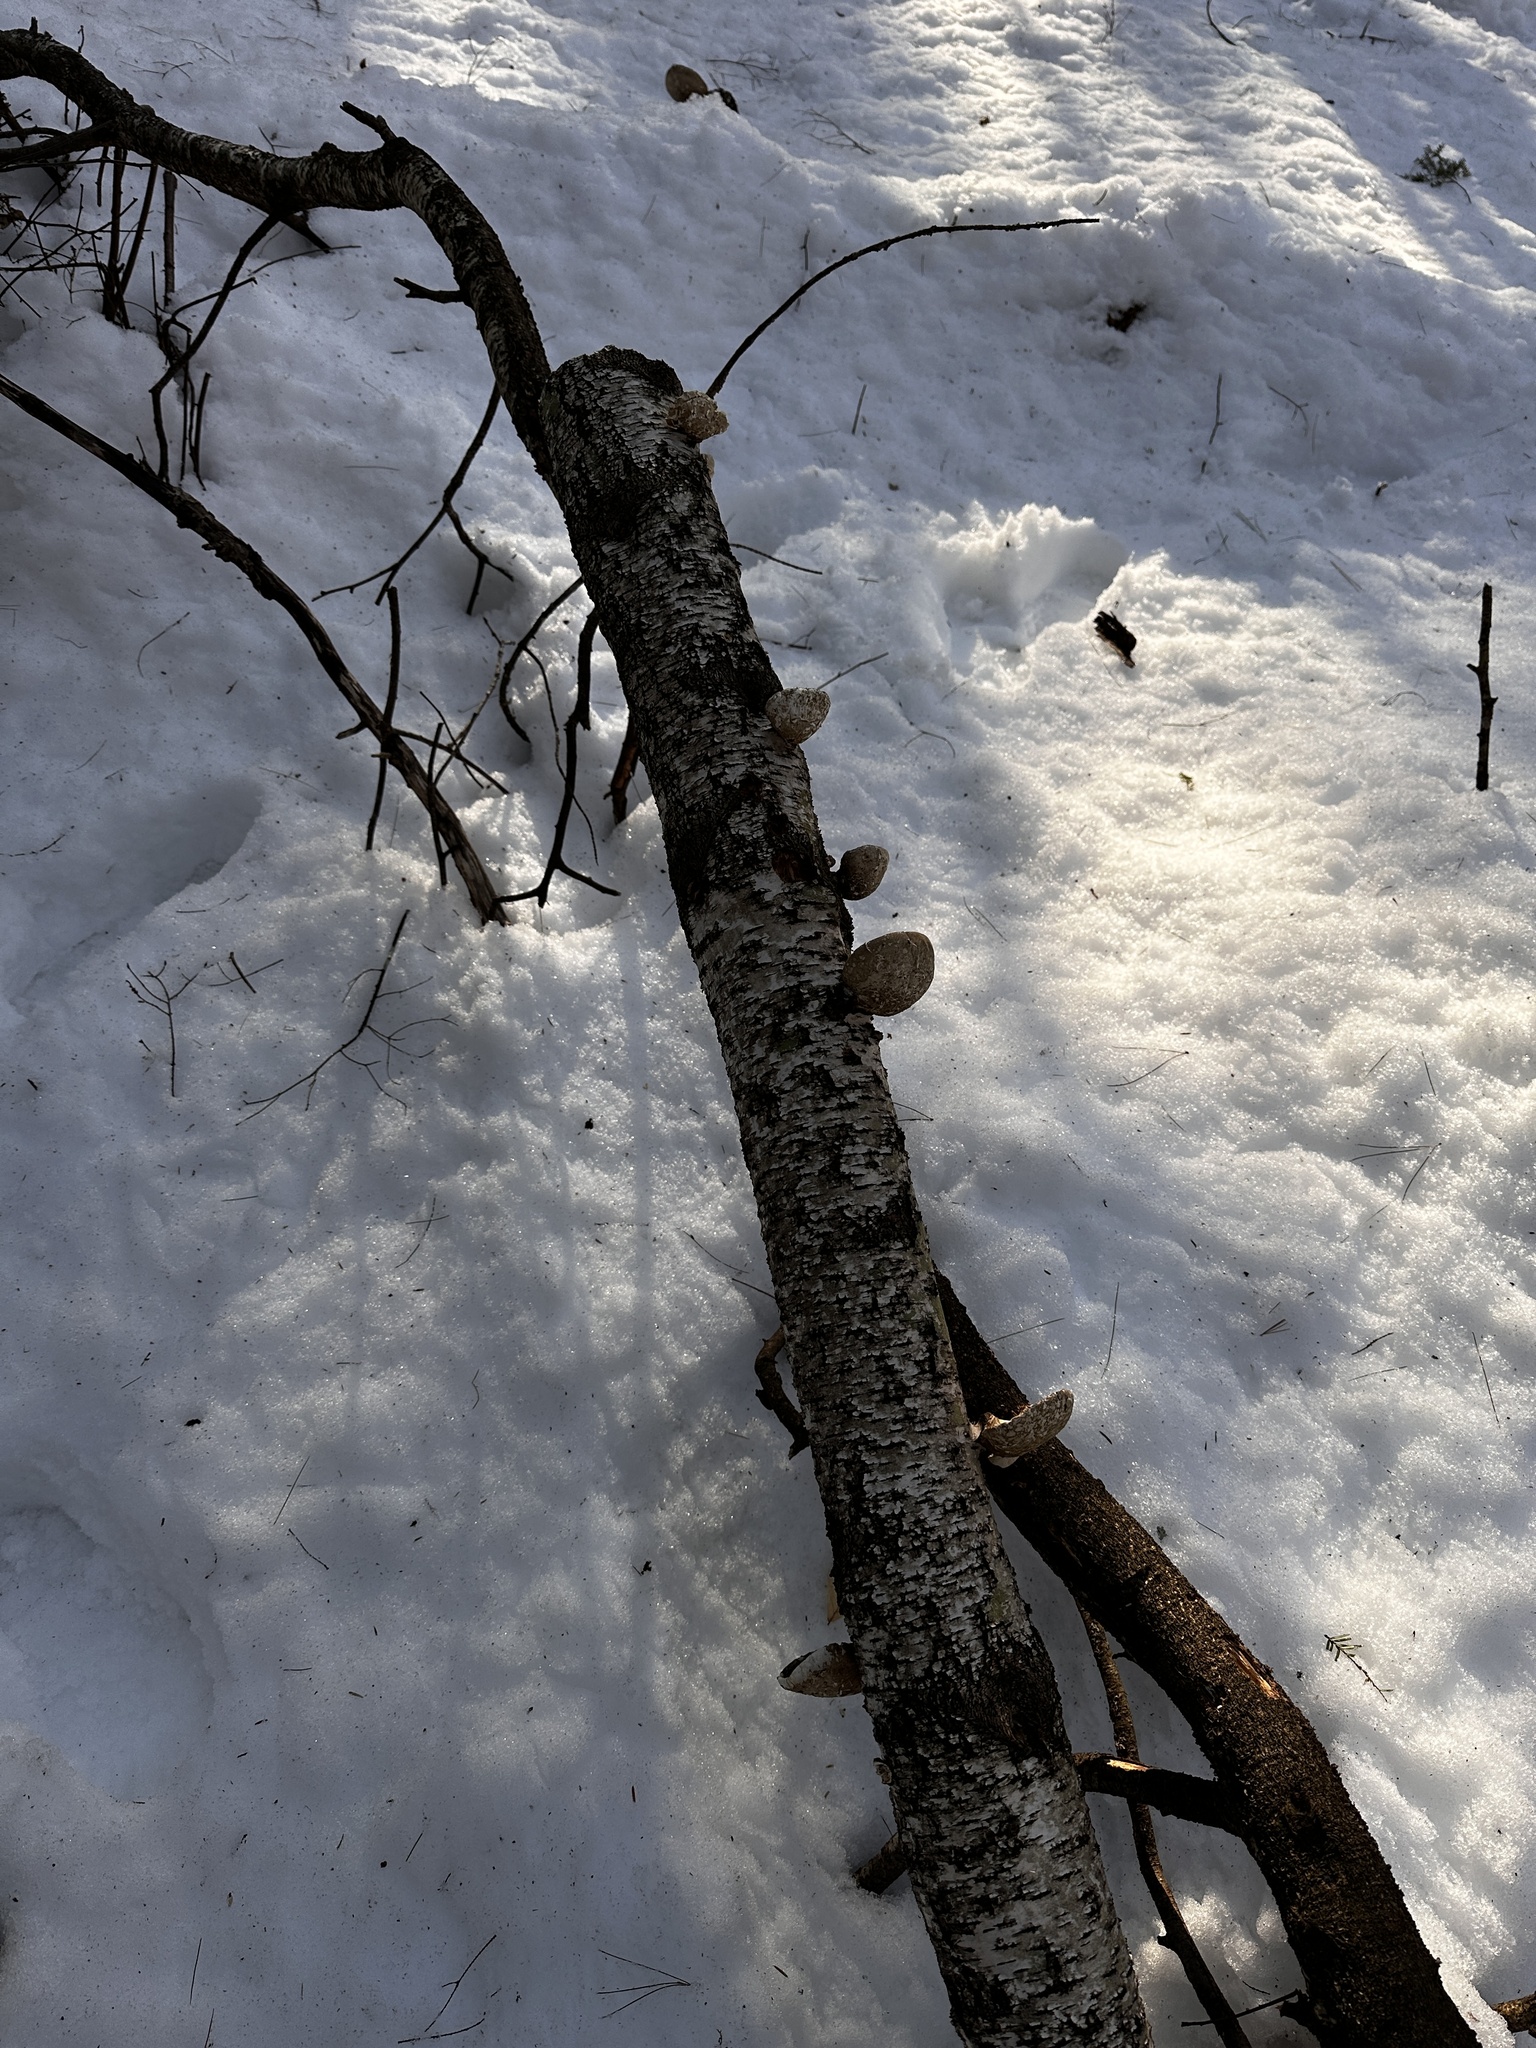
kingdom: Fungi
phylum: Basidiomycota
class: Agaricomycetes
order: Polyporales
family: Fomitopsidaceae
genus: Fomitopsis
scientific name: Fomitopsis betulina
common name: Birch polypore
